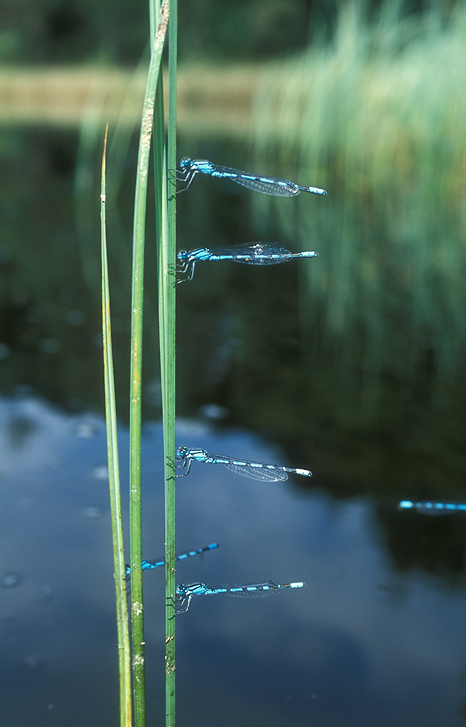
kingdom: Animalia
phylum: Arthropoda
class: Insecta
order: Odonata
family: Coenagrionidae
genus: Enallagma
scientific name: Enallagma cyathigerum
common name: Common blue damselfly
